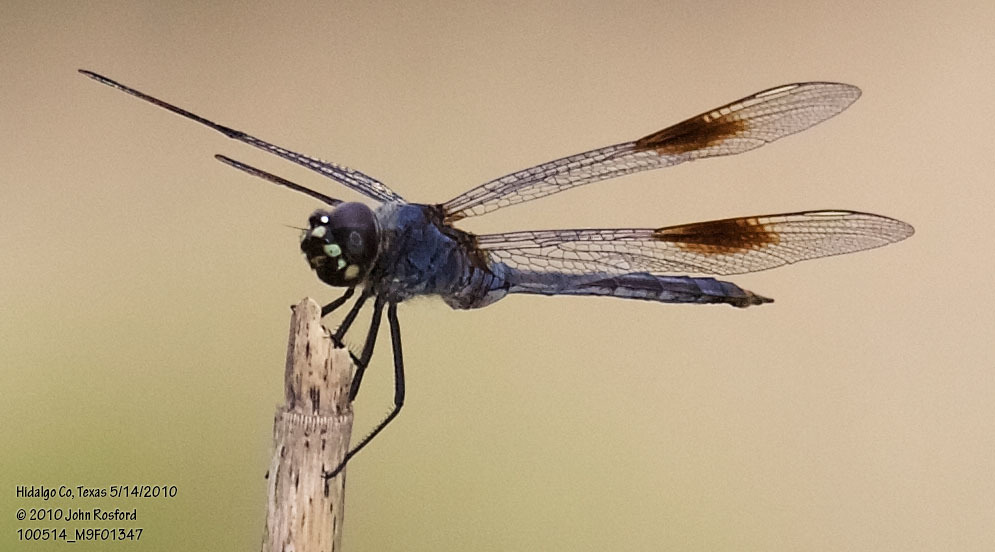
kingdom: Animalia
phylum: Arthropoda
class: Insecta
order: Odonata
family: Libellulidae
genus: Brachymesia
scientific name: Brachymesia gravida
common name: Four-spotted pennant
